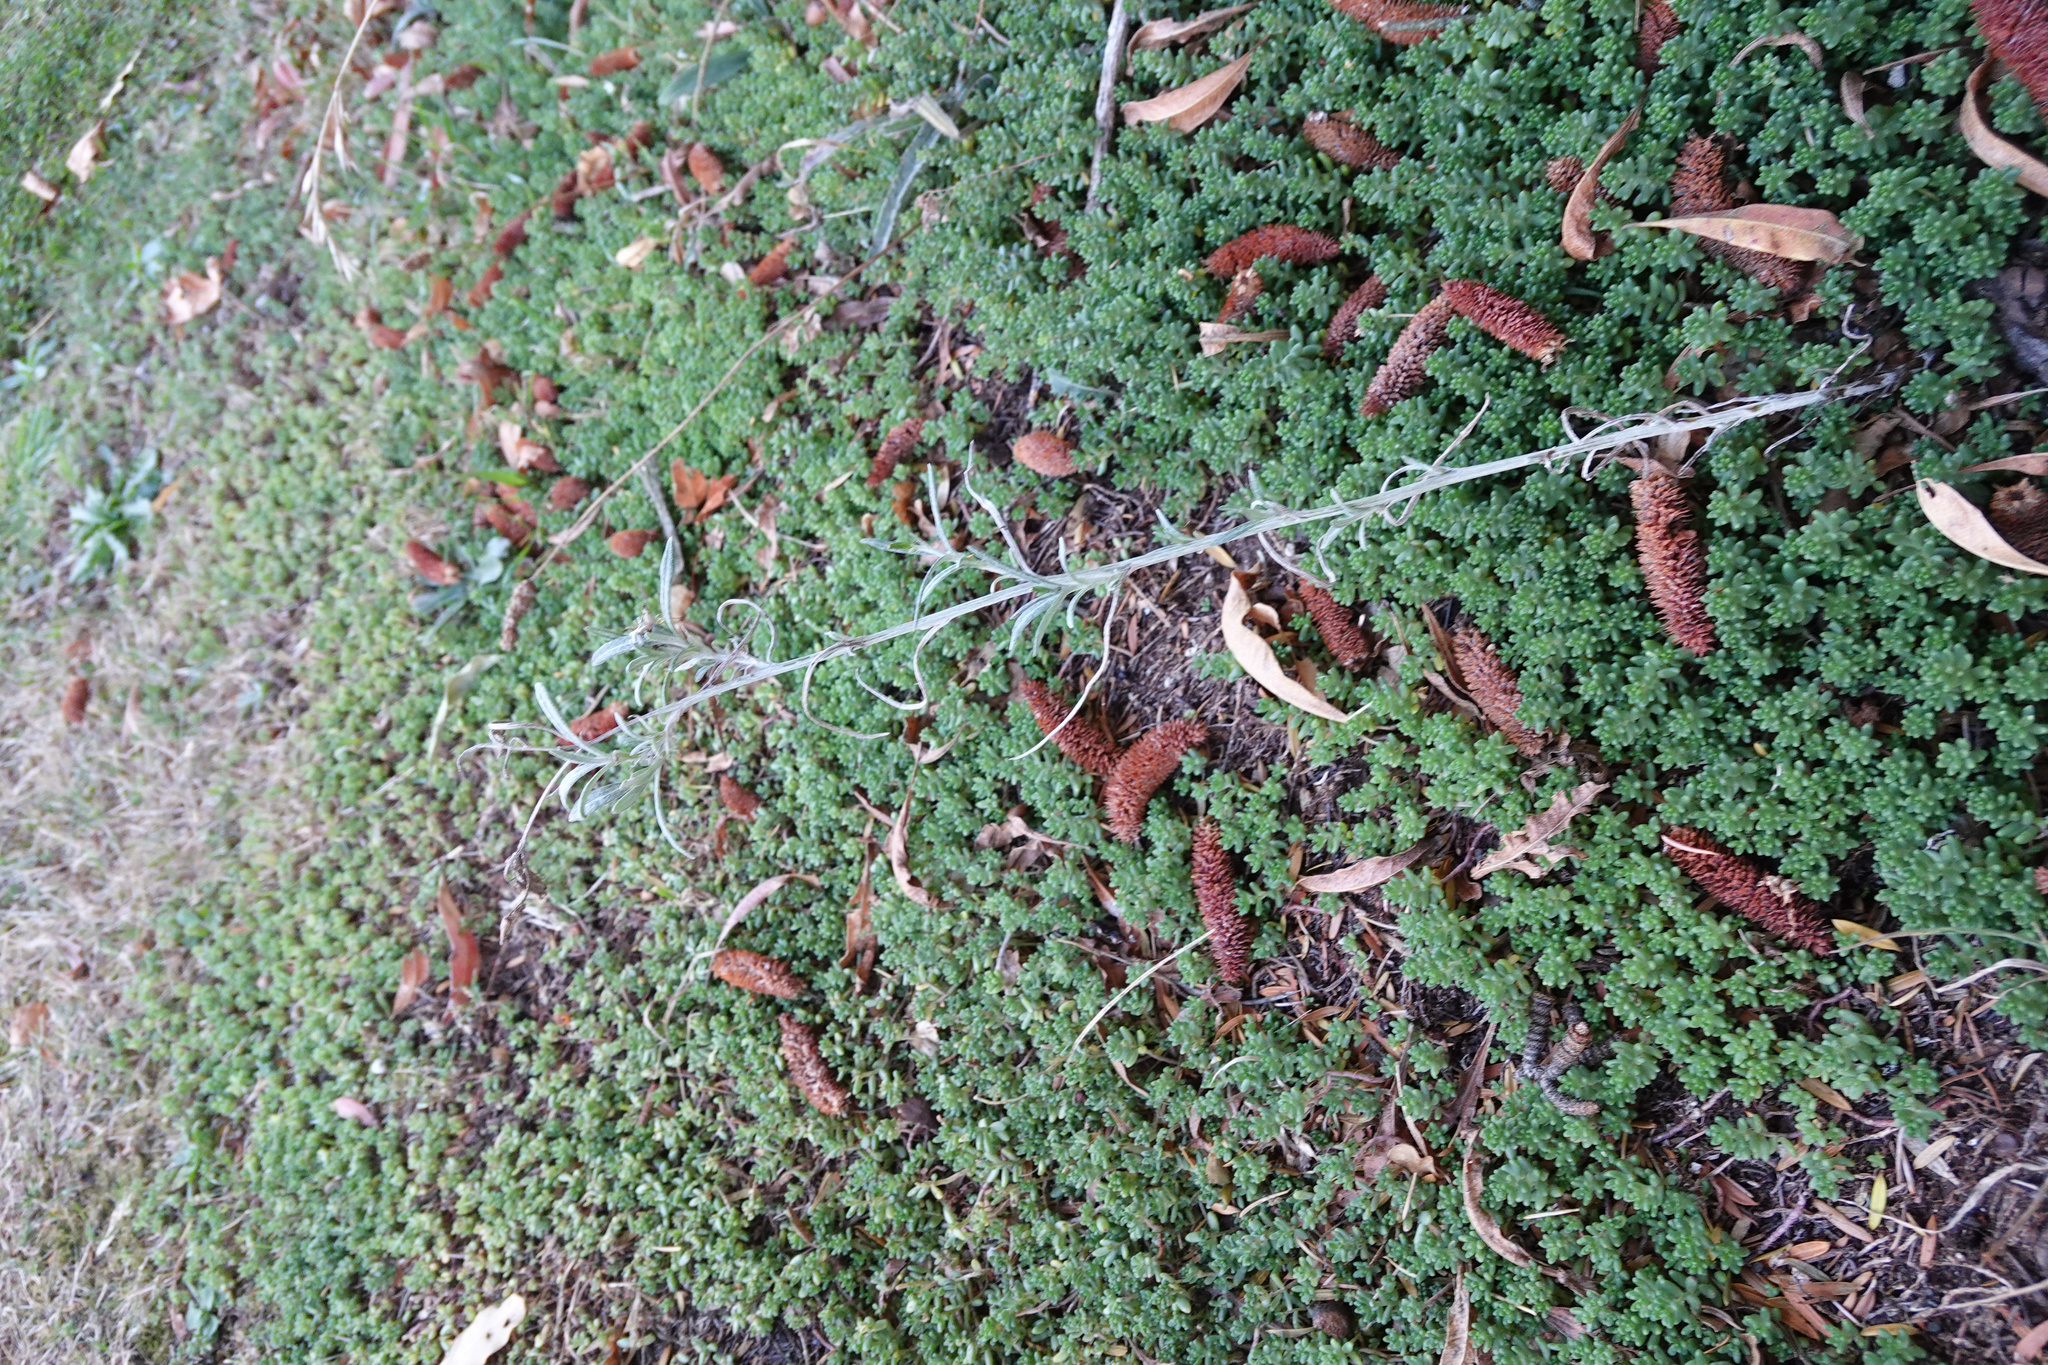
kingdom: Plantae
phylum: Tracheophyta
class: Magnoliopsida
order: Asterales
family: Asteraceae
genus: Senecio
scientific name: Senecio quadridentatus
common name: Cotton fireweed
